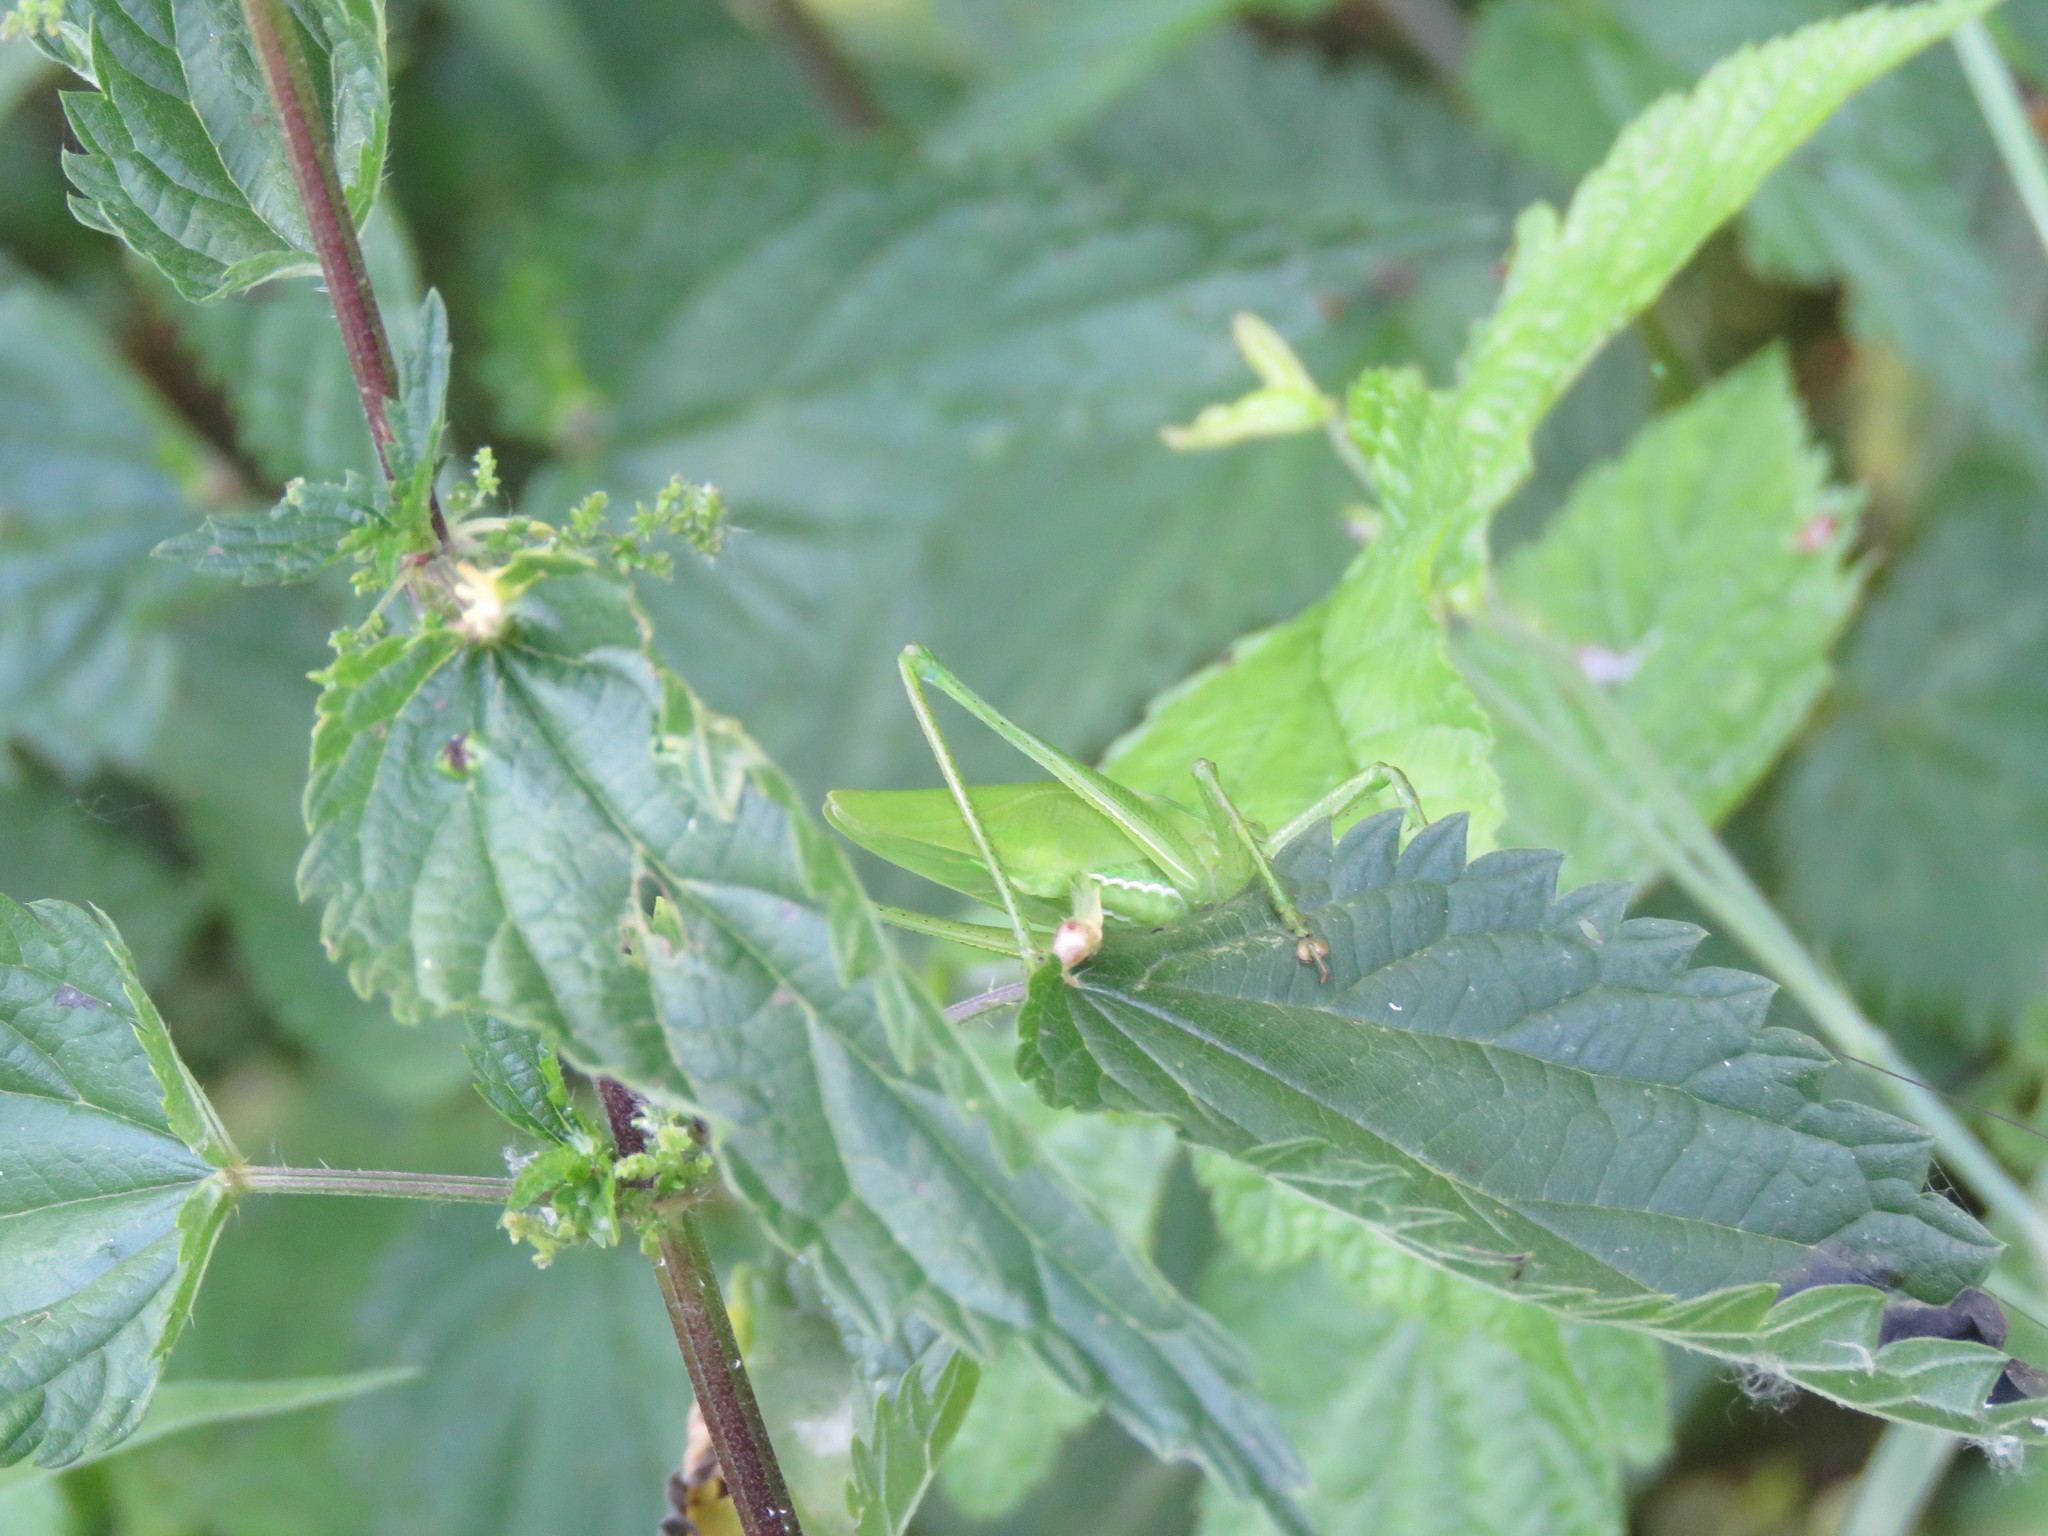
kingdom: Animalia
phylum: Arthropoda
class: Insecta
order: Orthoptera
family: Tettigoniidae
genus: Tettigonia
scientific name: Tettigonia cantans
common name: Upland green bush-cricket
